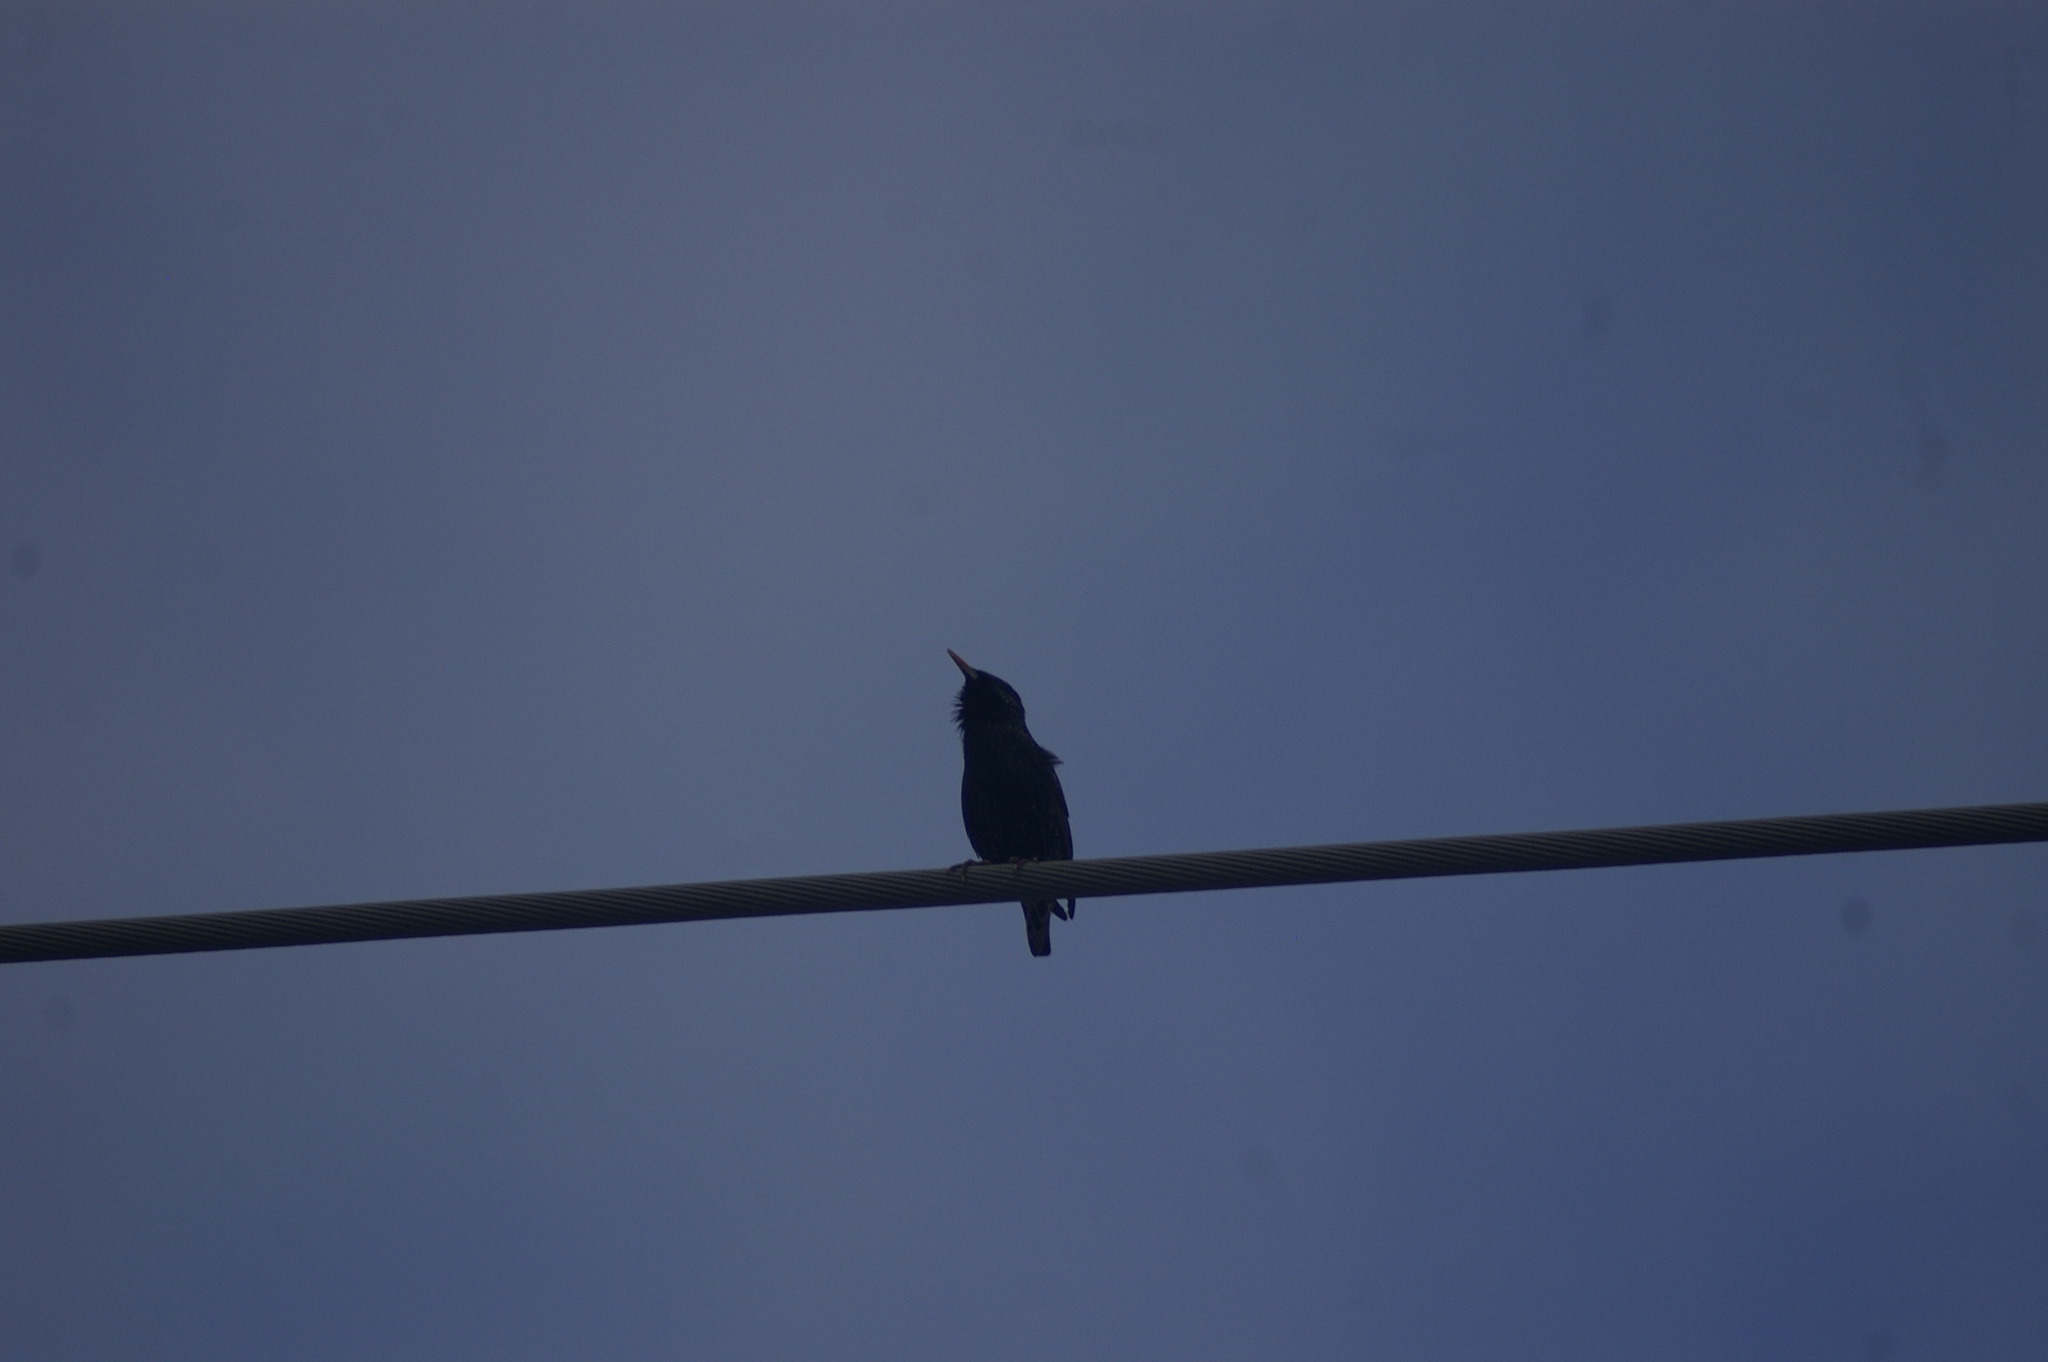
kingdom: Animalia
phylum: Chordata
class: Aves
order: Passeriformes
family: Sturnidae
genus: Sturnus
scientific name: Sturnus vulgaris
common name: Common starling
